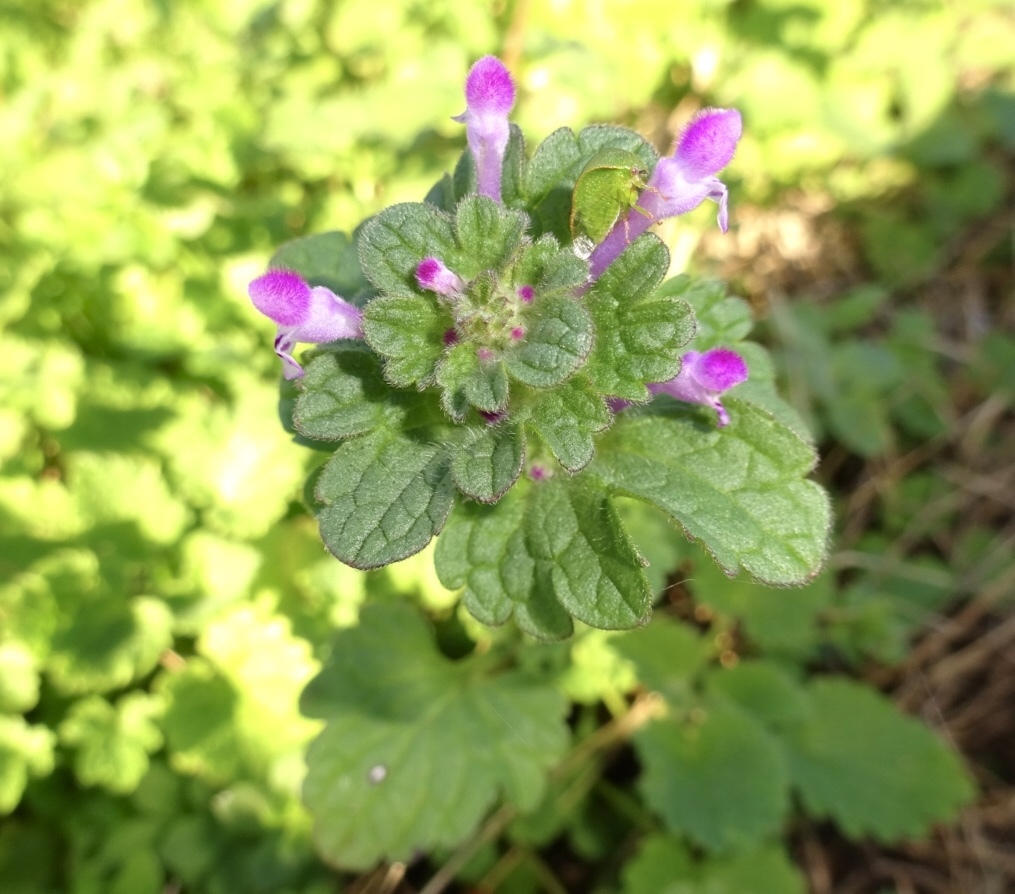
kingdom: Plantae
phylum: Tracheophyta
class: Magnoliopsida
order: Lamiales
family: Lamiaceae
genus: Lamium
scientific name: Lamium amplexicaule
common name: Henbit dead-nettle
